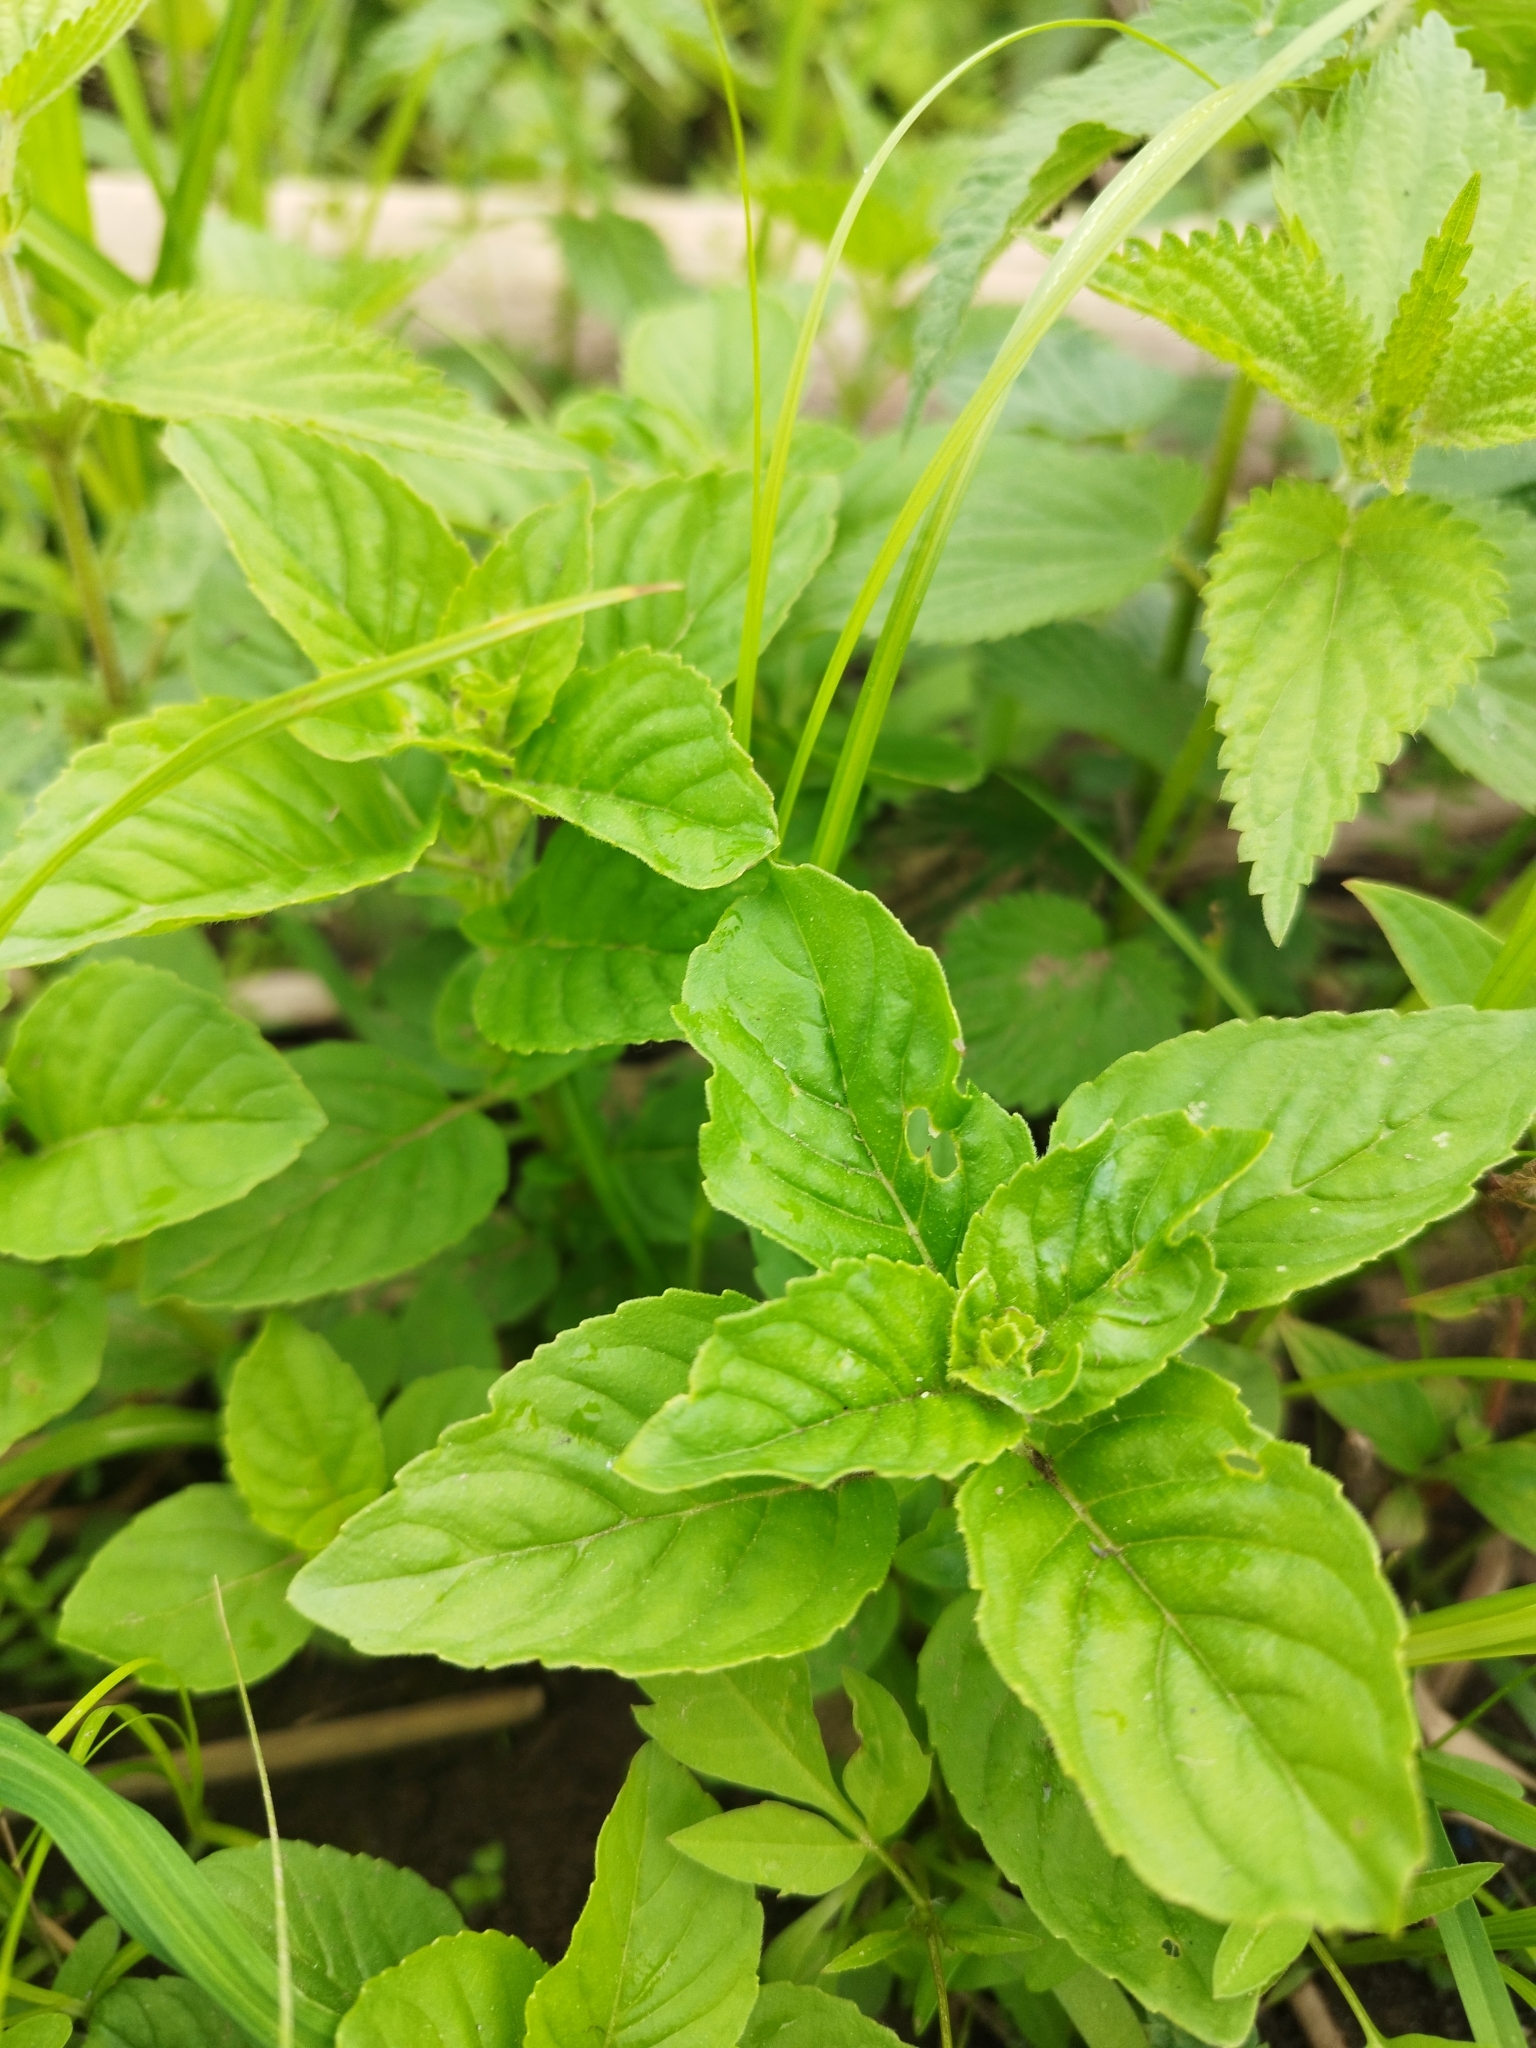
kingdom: Plantae
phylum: Tracheophyta
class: Magnoliopsida
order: Lamiales
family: Lamiaceae
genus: Mentha
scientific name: Mentha arvensis
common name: Corn mint
